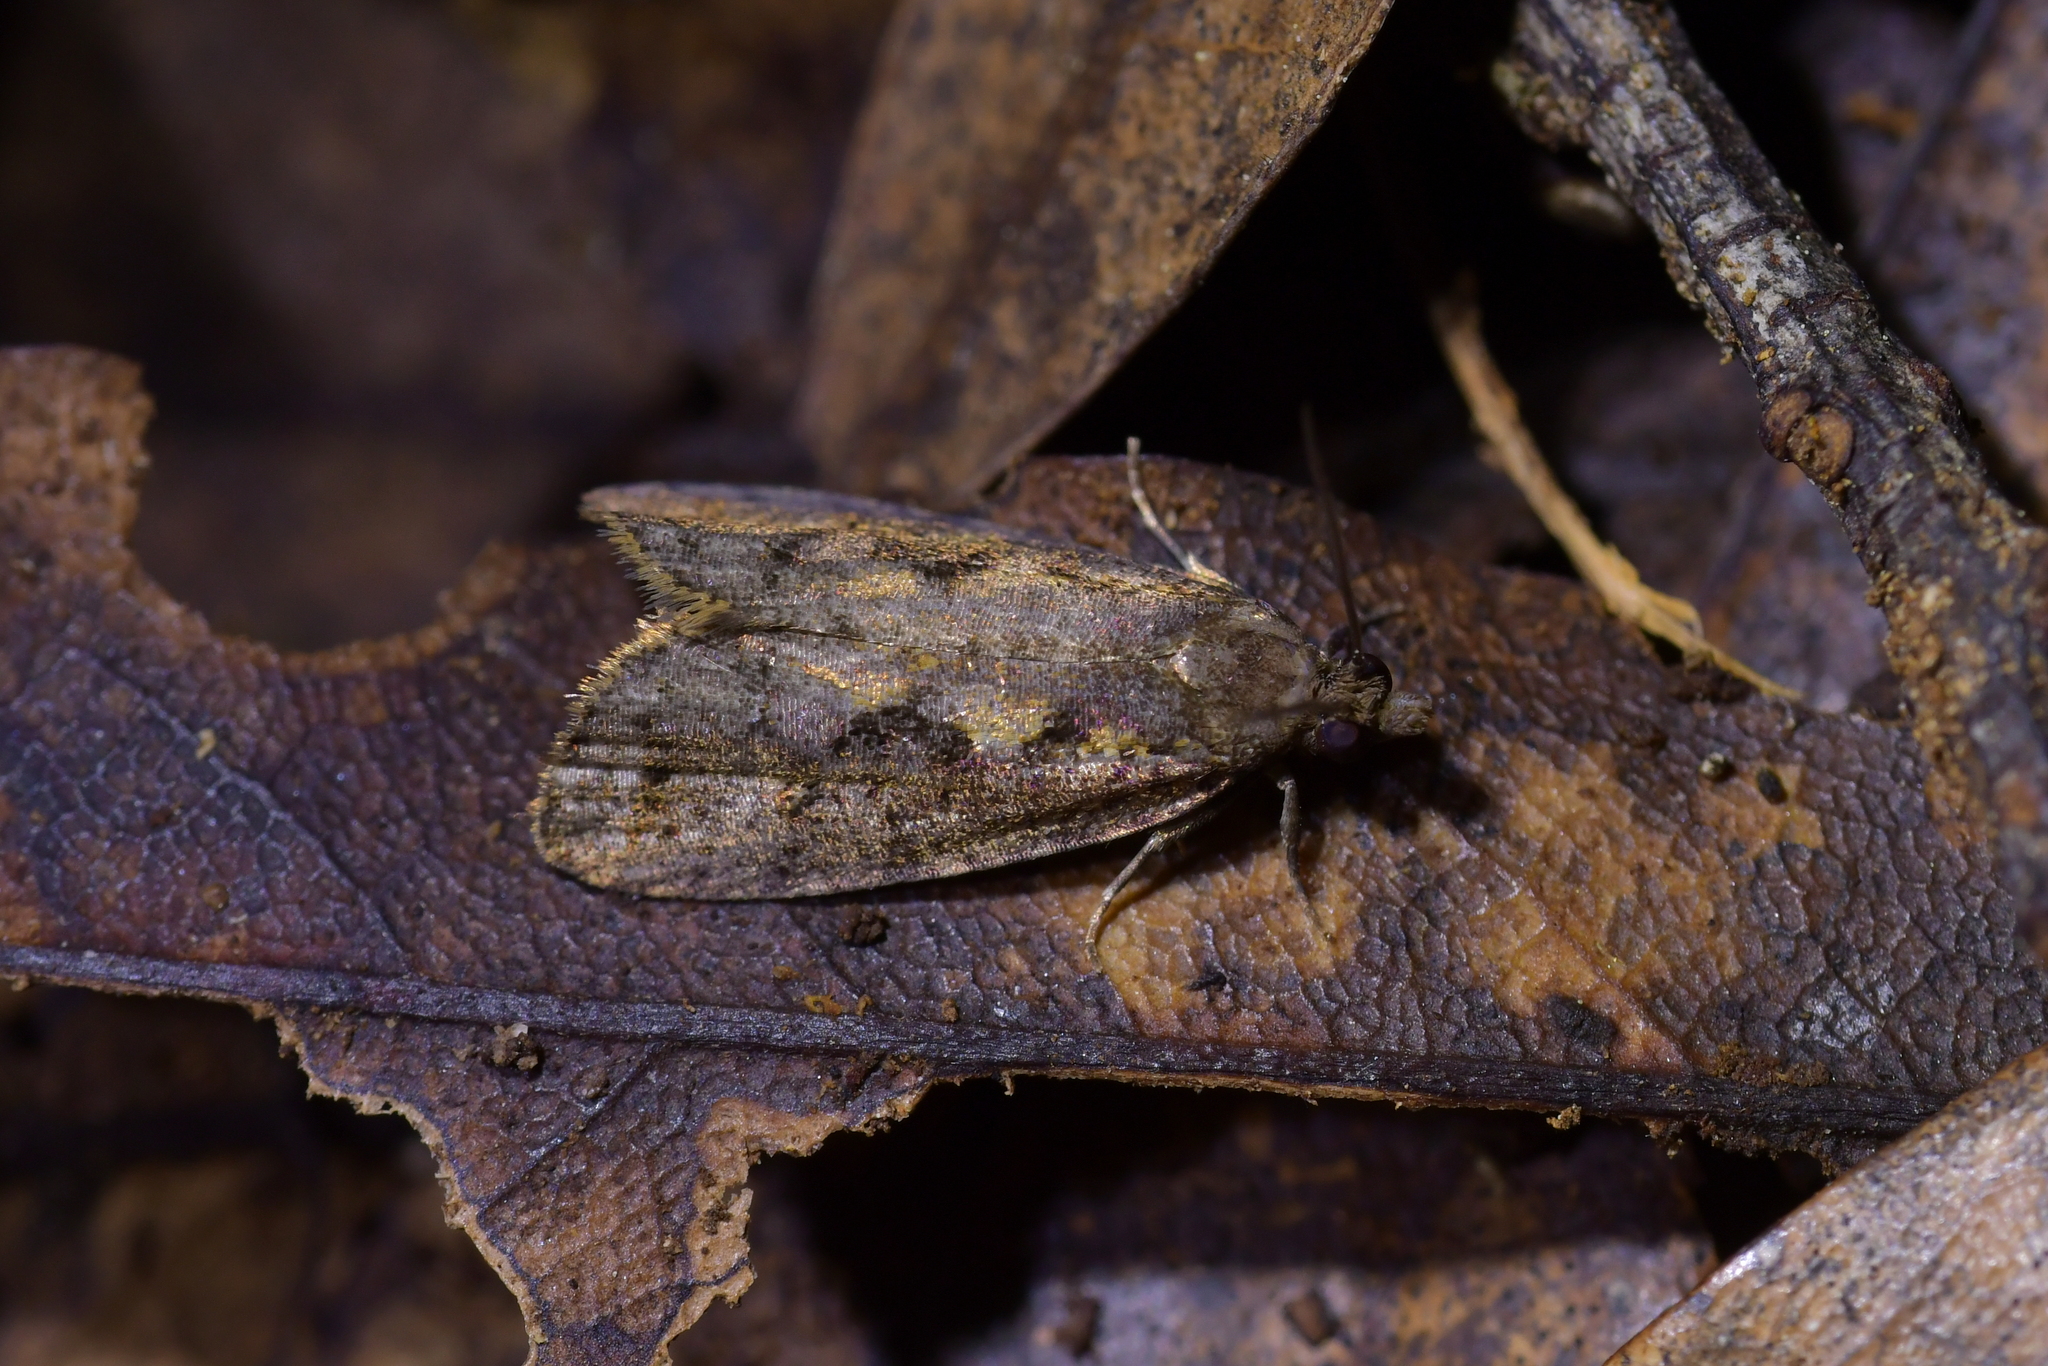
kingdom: Animalia
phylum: Arthropoda
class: Insecta
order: Lepidoptera
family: Tortricidae
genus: Cryptaspasma
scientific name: Cryptaspasma querula
